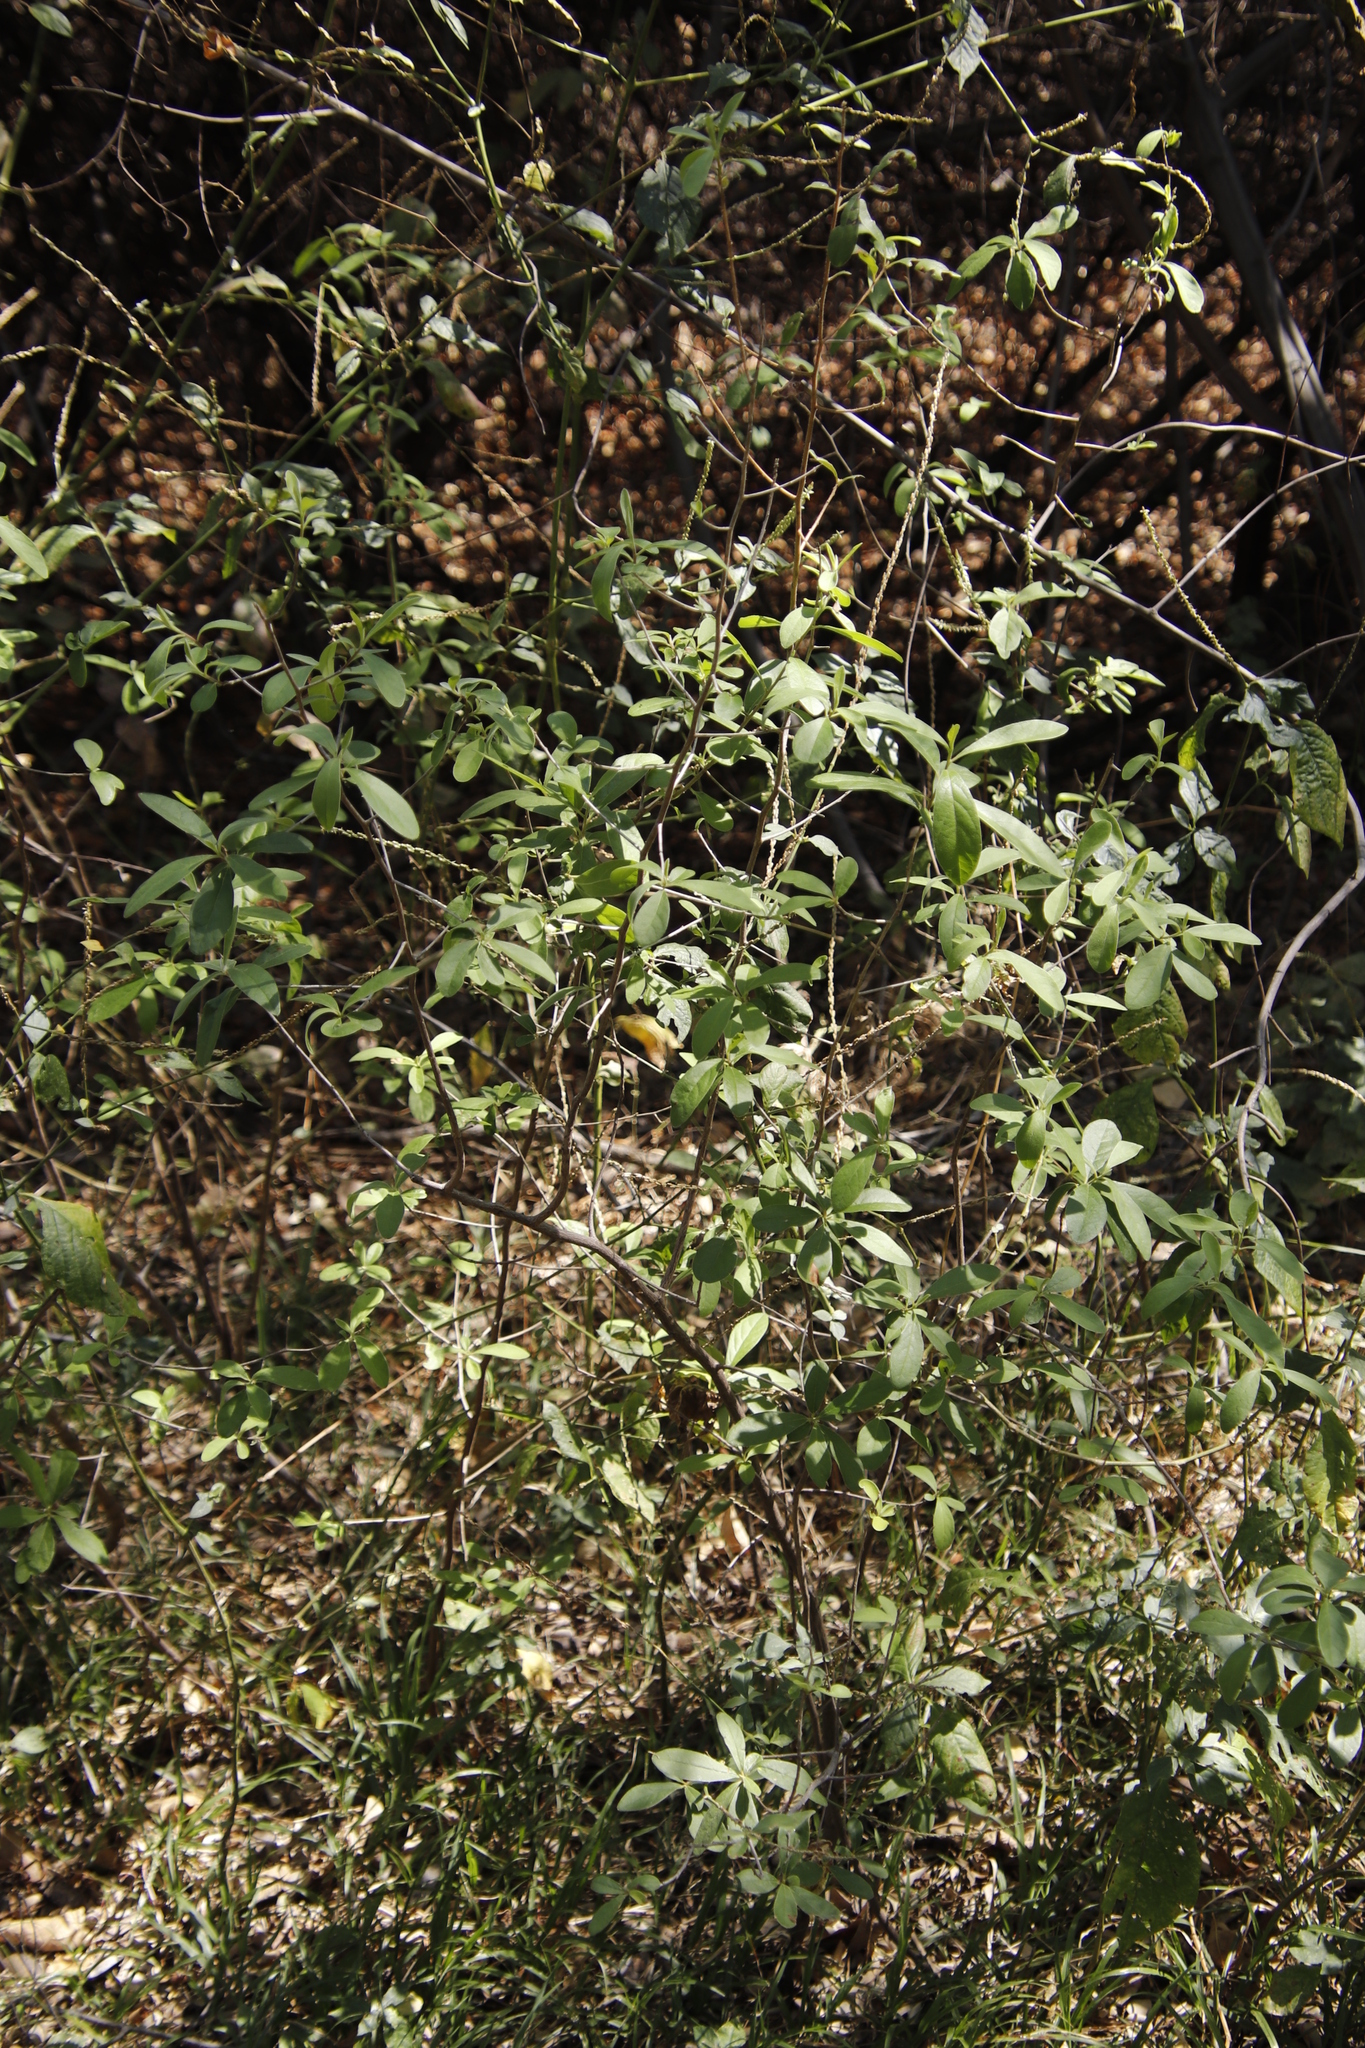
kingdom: Plantae
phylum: Tracheophyta
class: Magnoliopsida
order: Caryophyllales
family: Amaranthaceae
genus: Achyranthes
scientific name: Achyranthes aspera
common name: Devil's horsewhip
